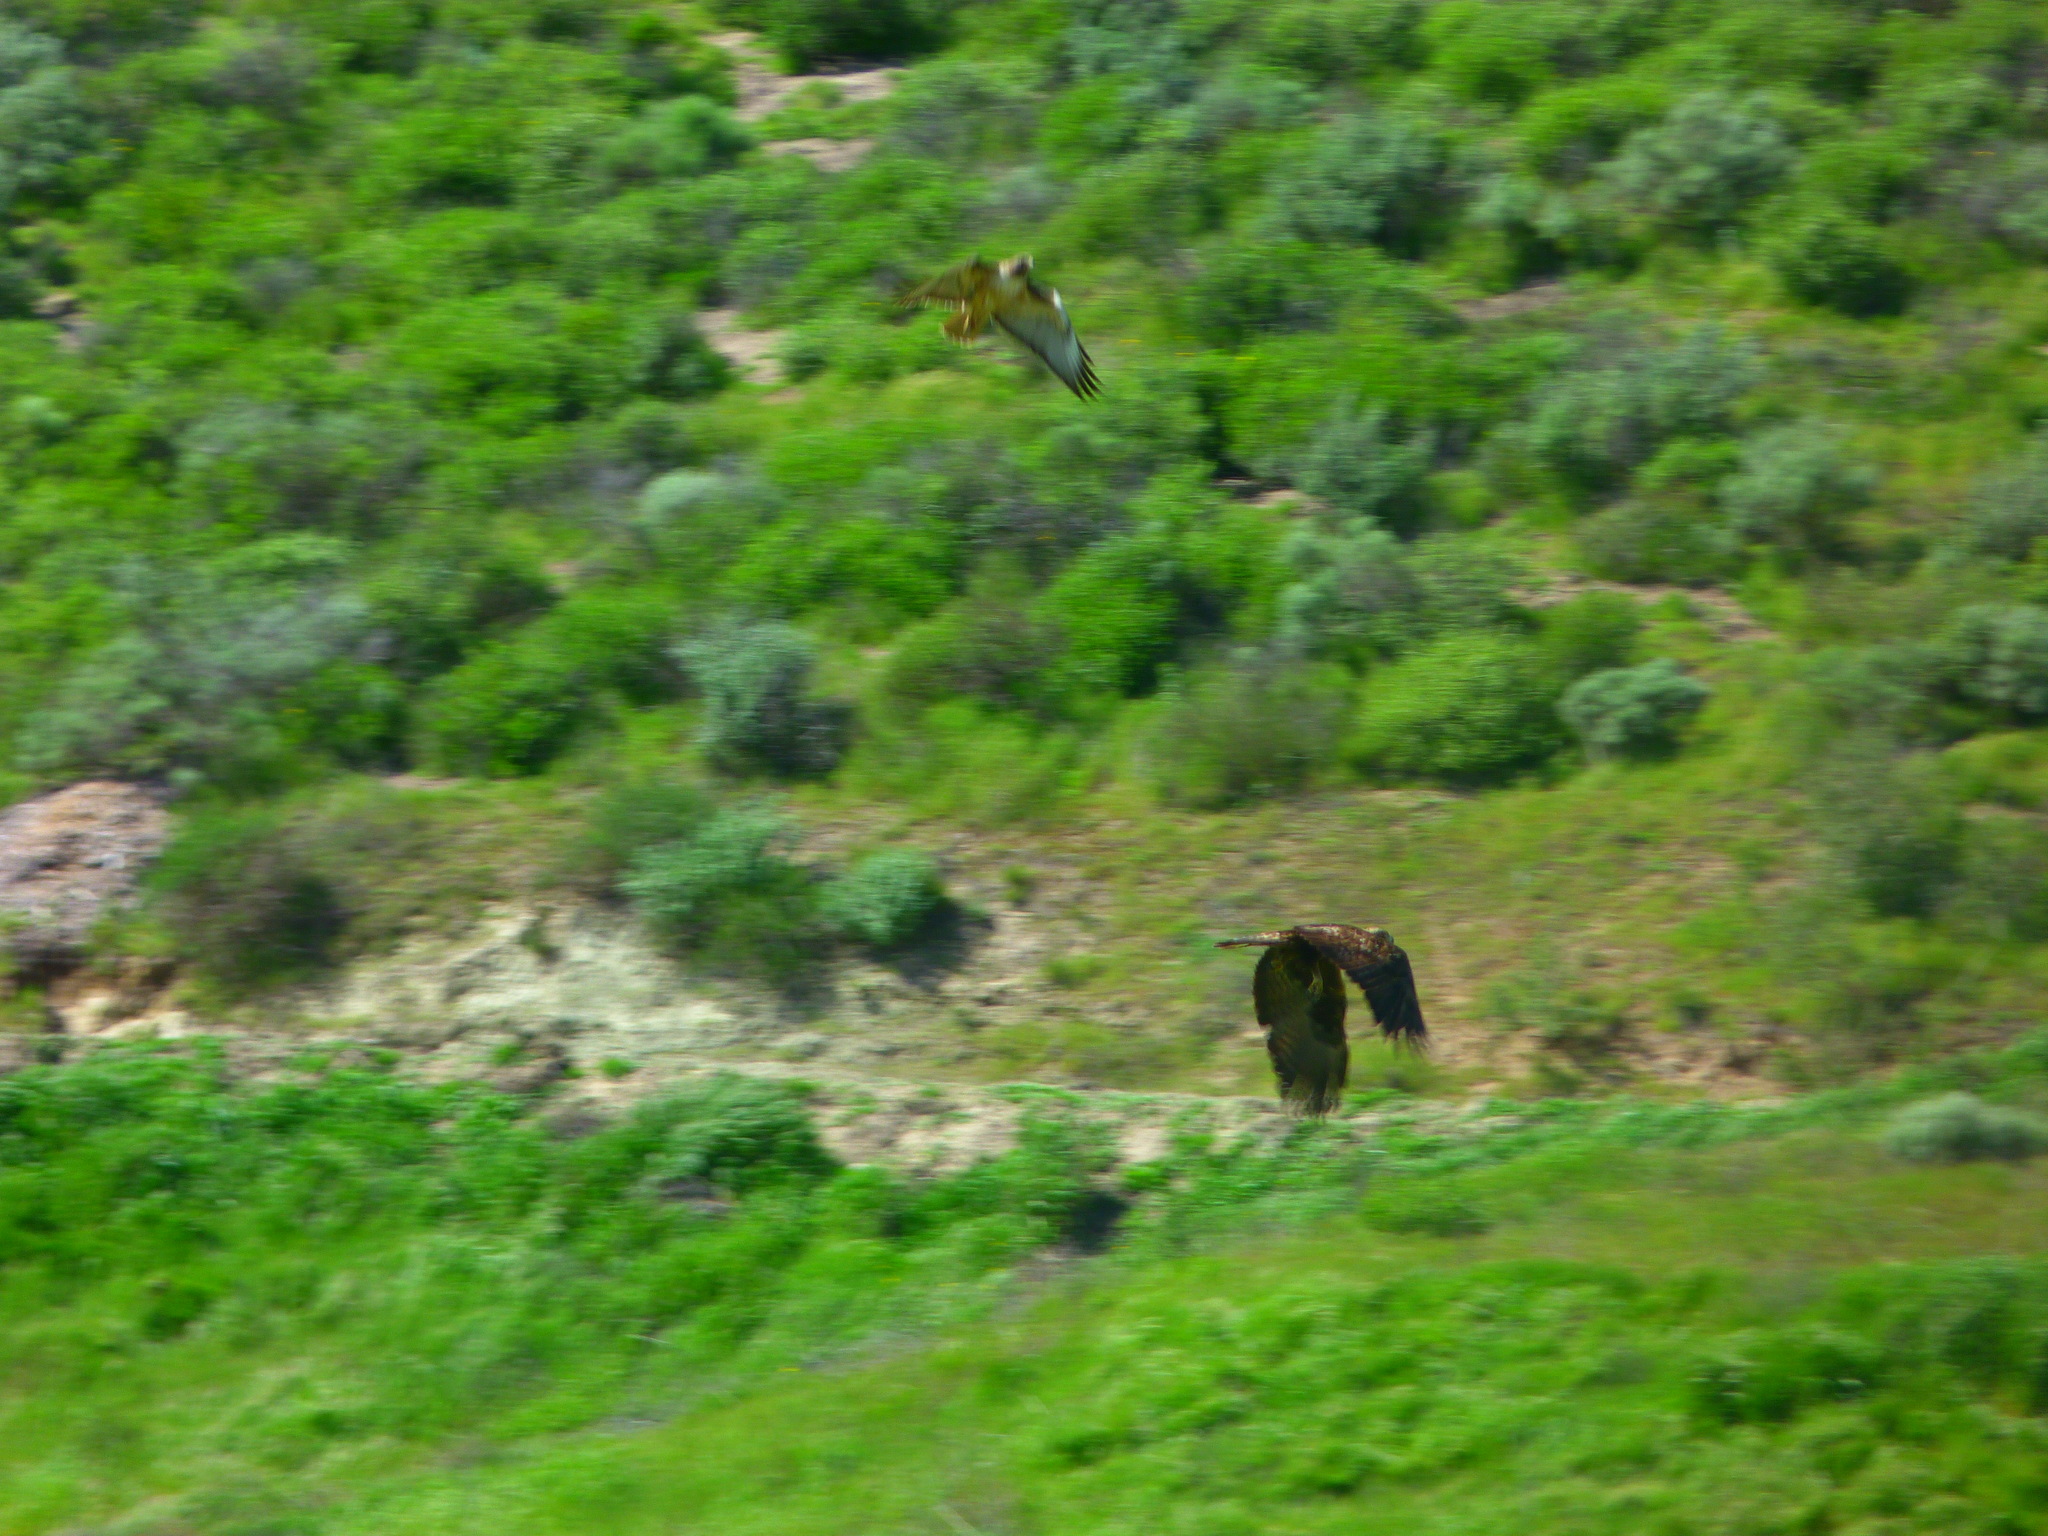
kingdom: Animalia
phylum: Chordata
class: Aves
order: Accipitriformes
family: Accipitridae
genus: Aquila
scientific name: Aquila chrysaetos
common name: Golden eagle
